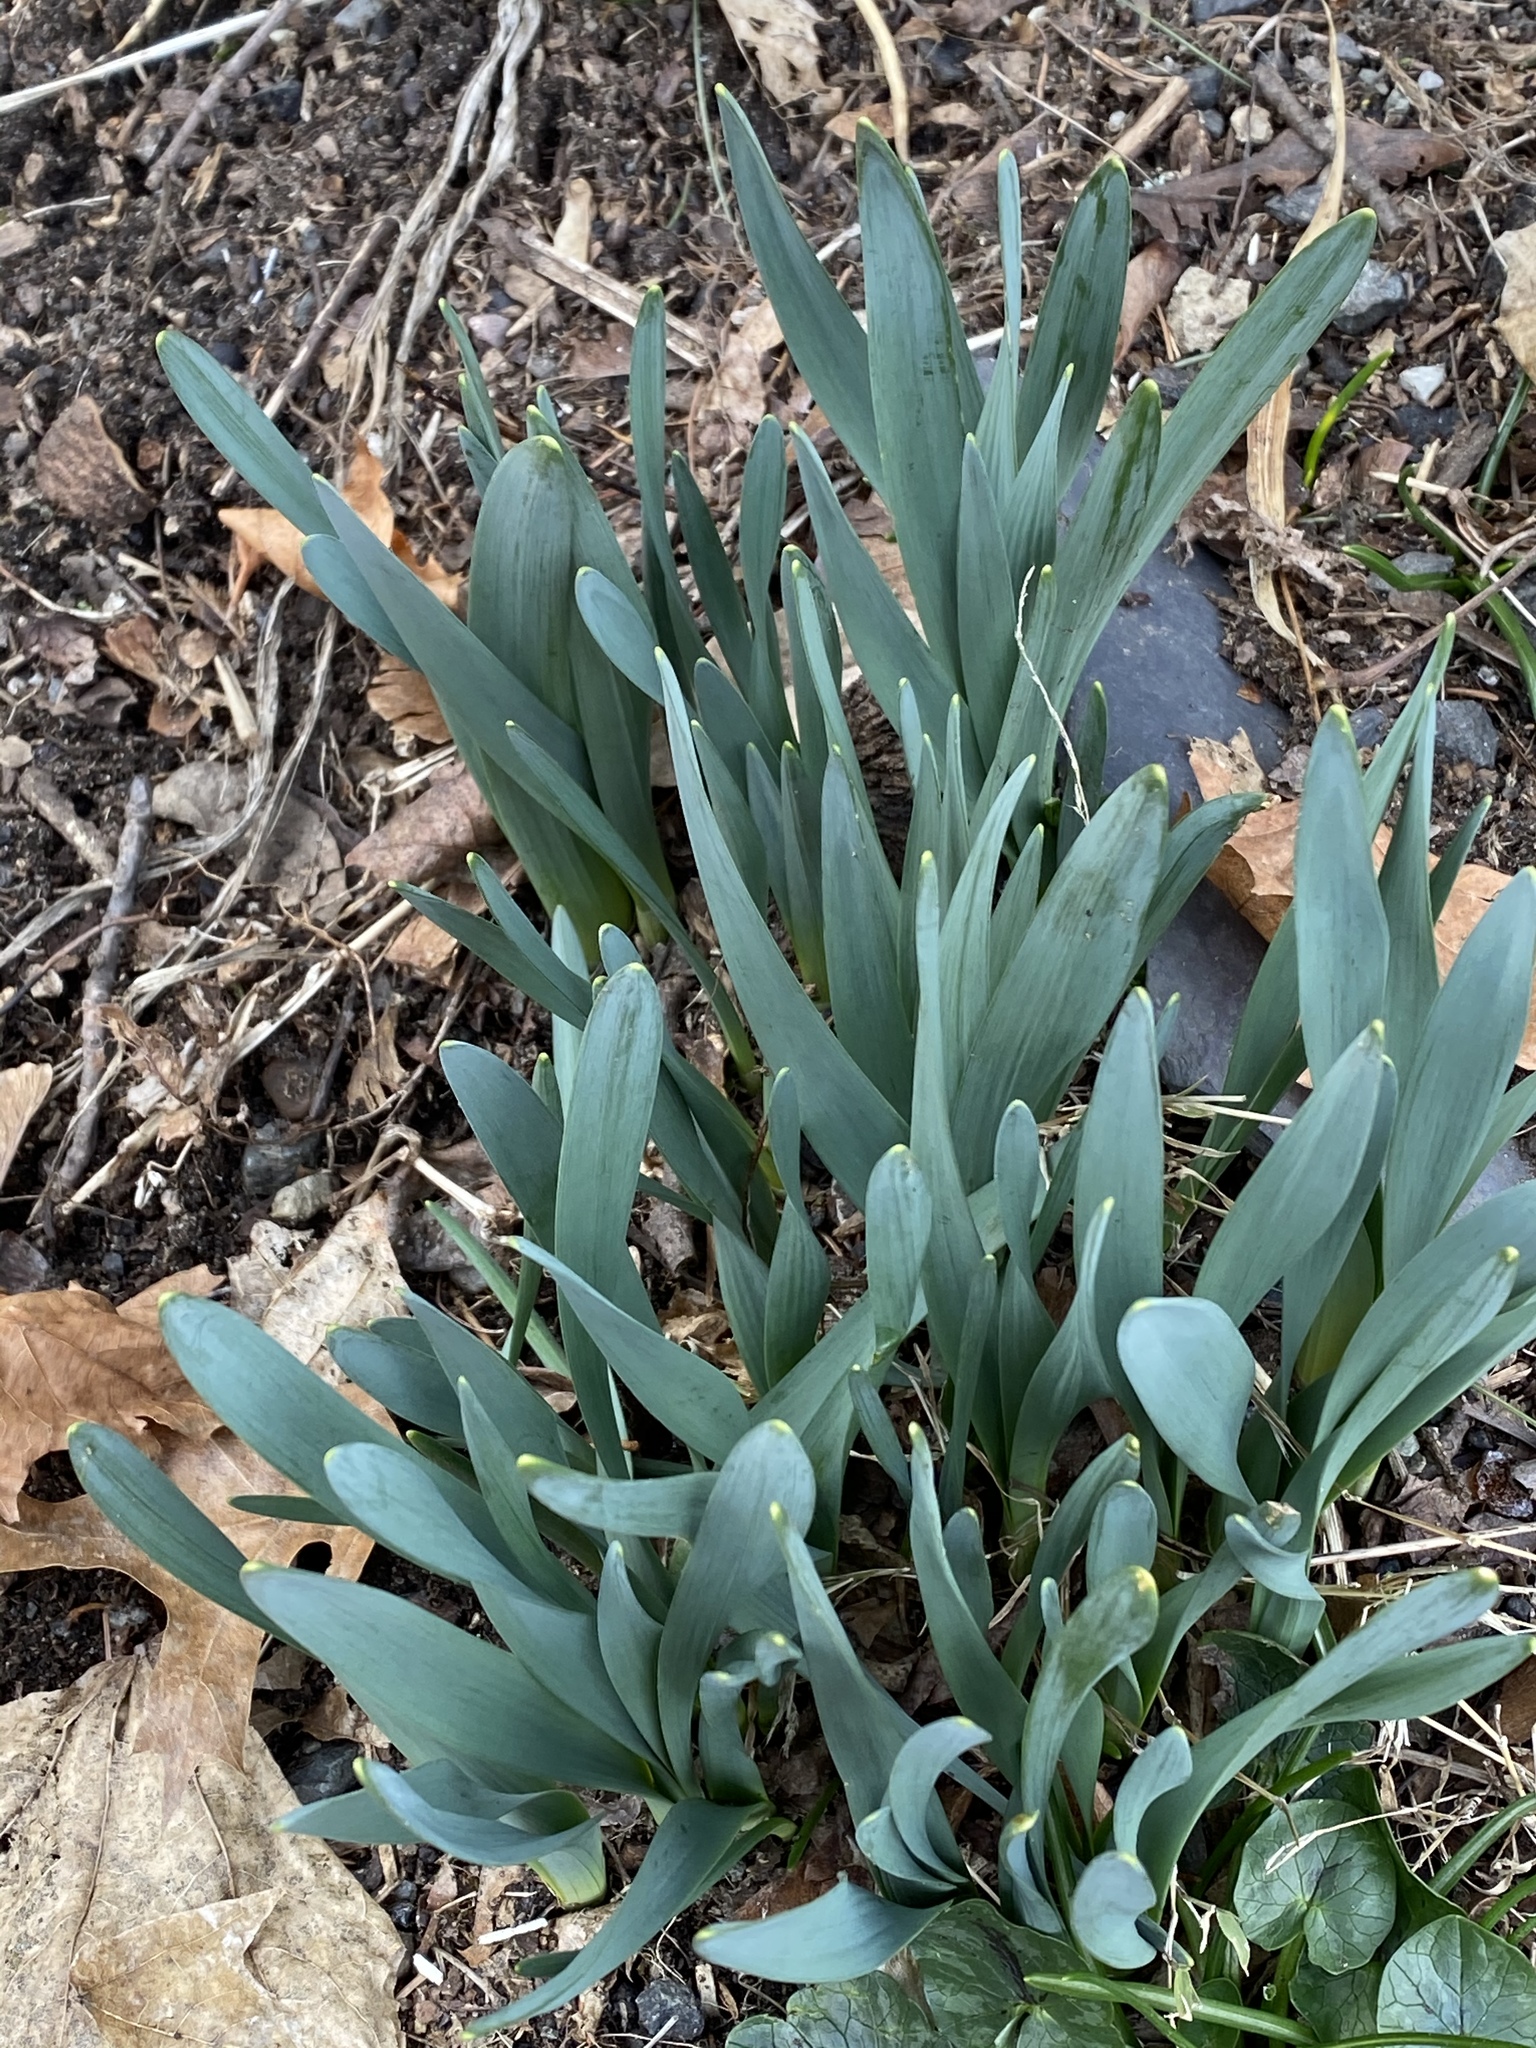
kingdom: Plantae
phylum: Tracheophyta
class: Liliopsida
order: Asparagales
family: Amaryllidaceae
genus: Narcissus
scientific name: Narcissus
